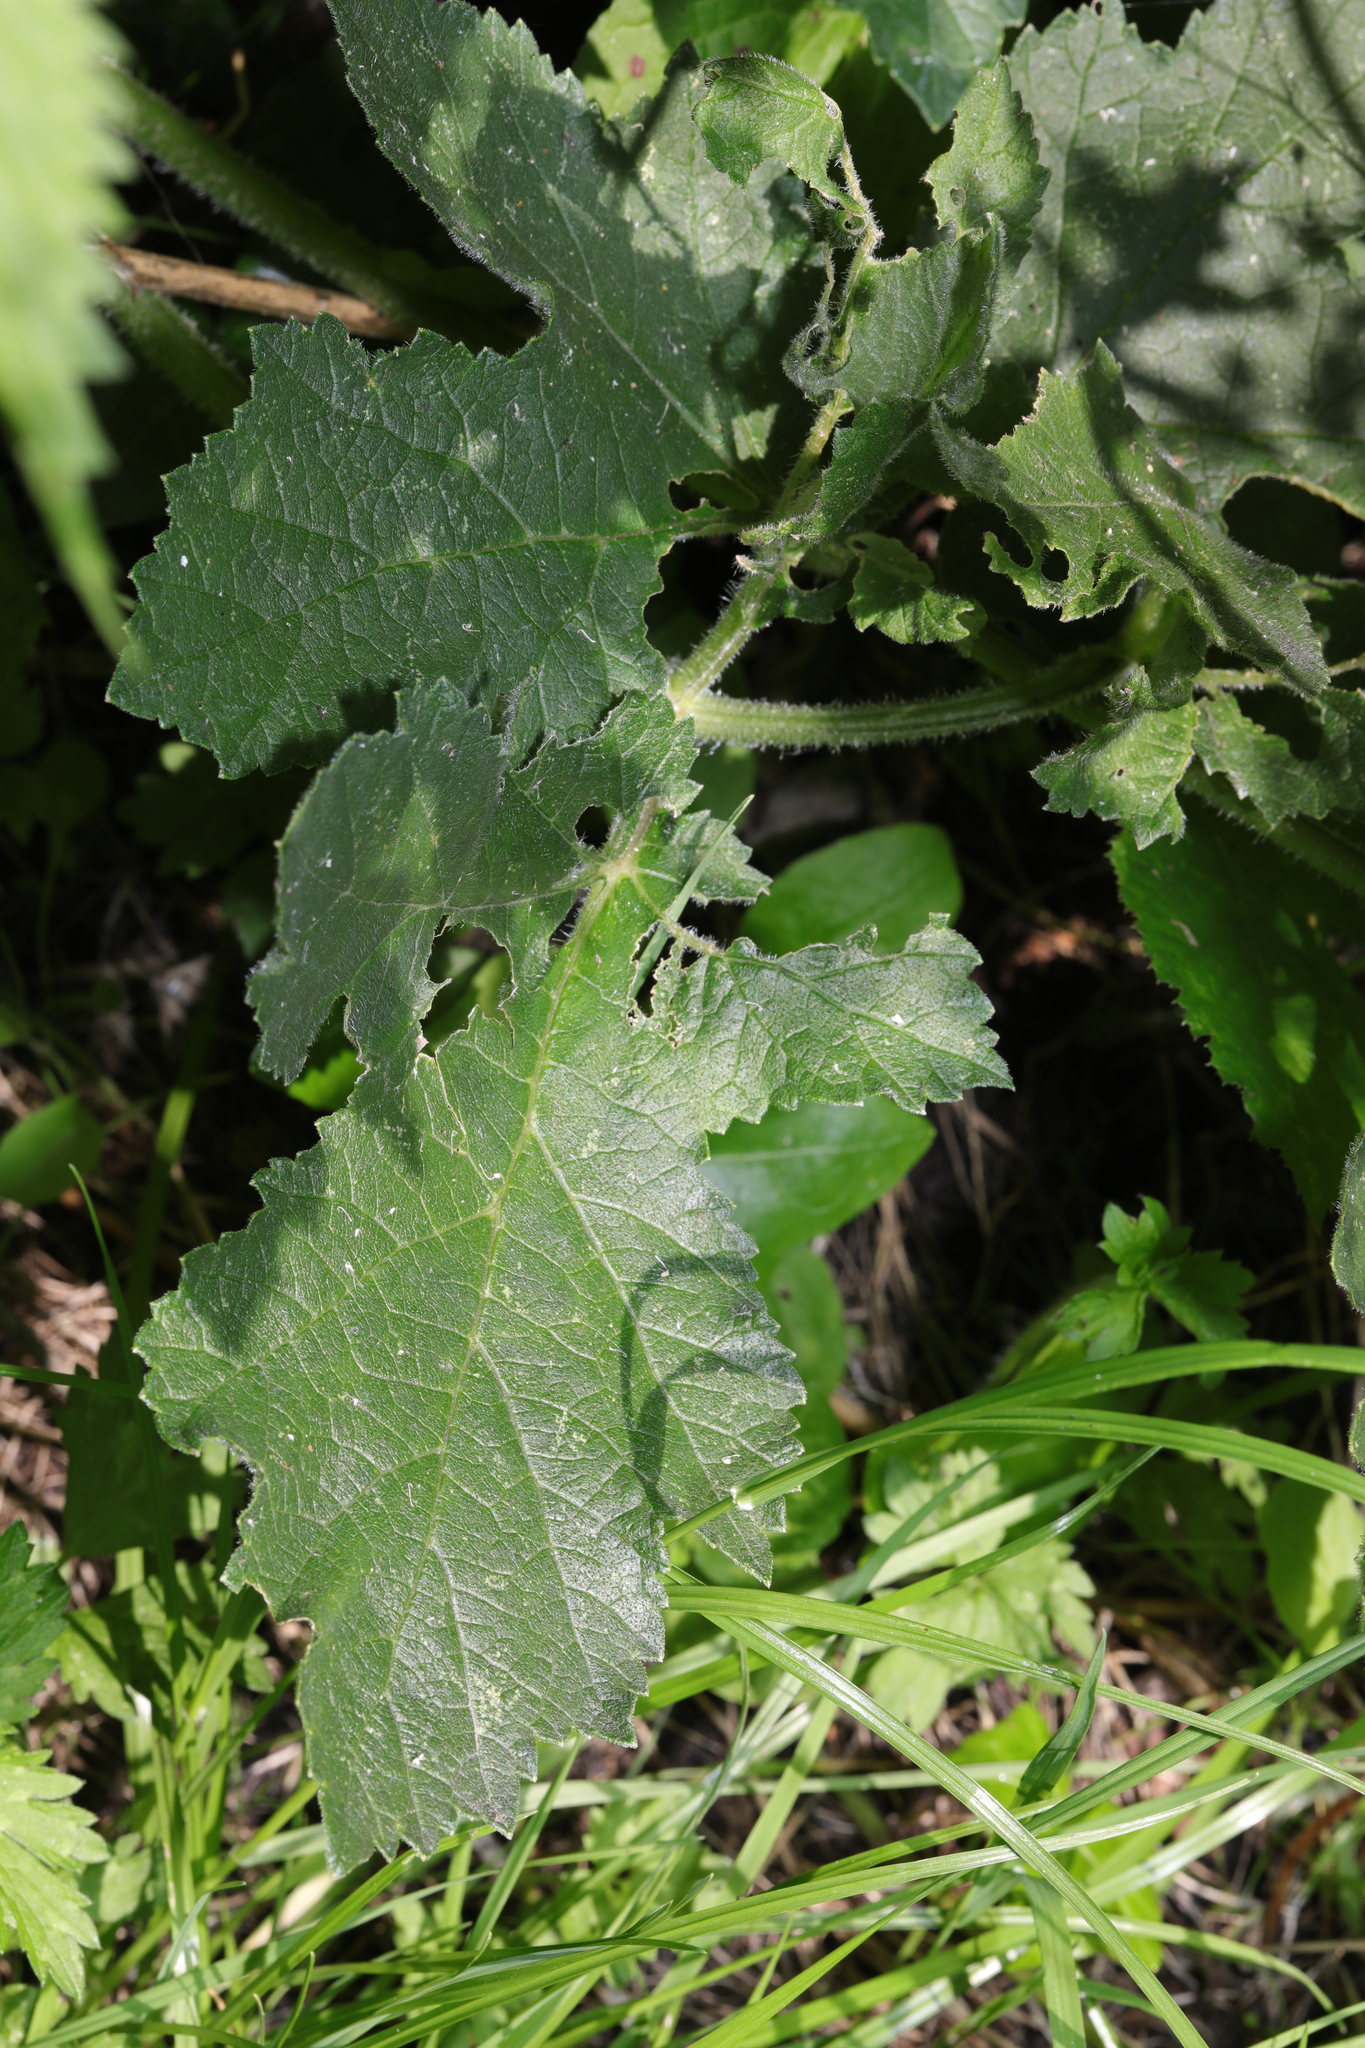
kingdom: Plantae
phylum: Tracheophyta
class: Magnoliopsida
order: Apiales
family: Apiaceae
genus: Heracleum
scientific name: Heracleum sphondylium
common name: Hogweed
